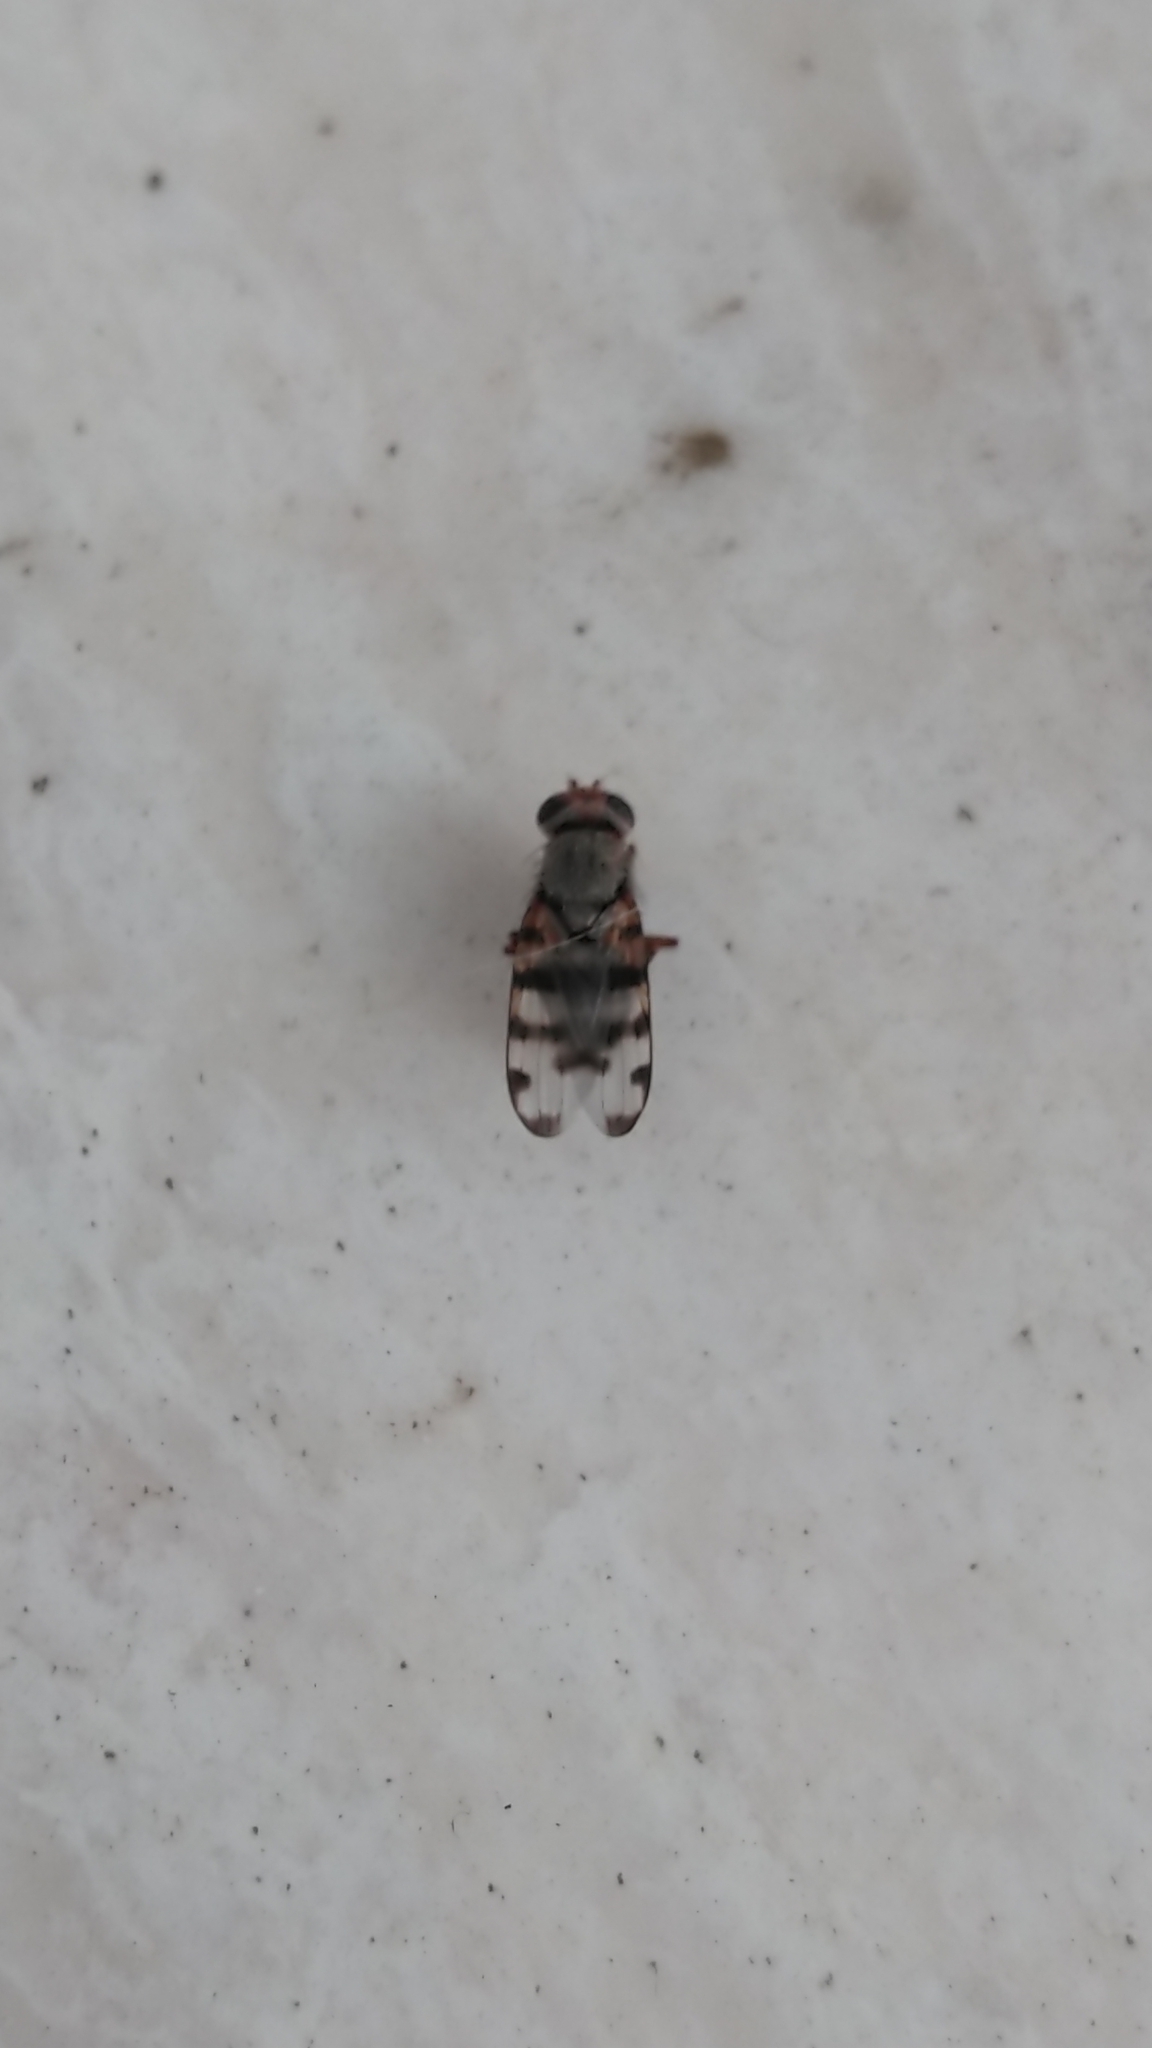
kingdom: Animalia
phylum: Arthropoda
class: Insecta
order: Diptera
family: Ulidiidae
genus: Ceroxys
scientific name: Ceroxys latiusculus
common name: Picture-winged fly
